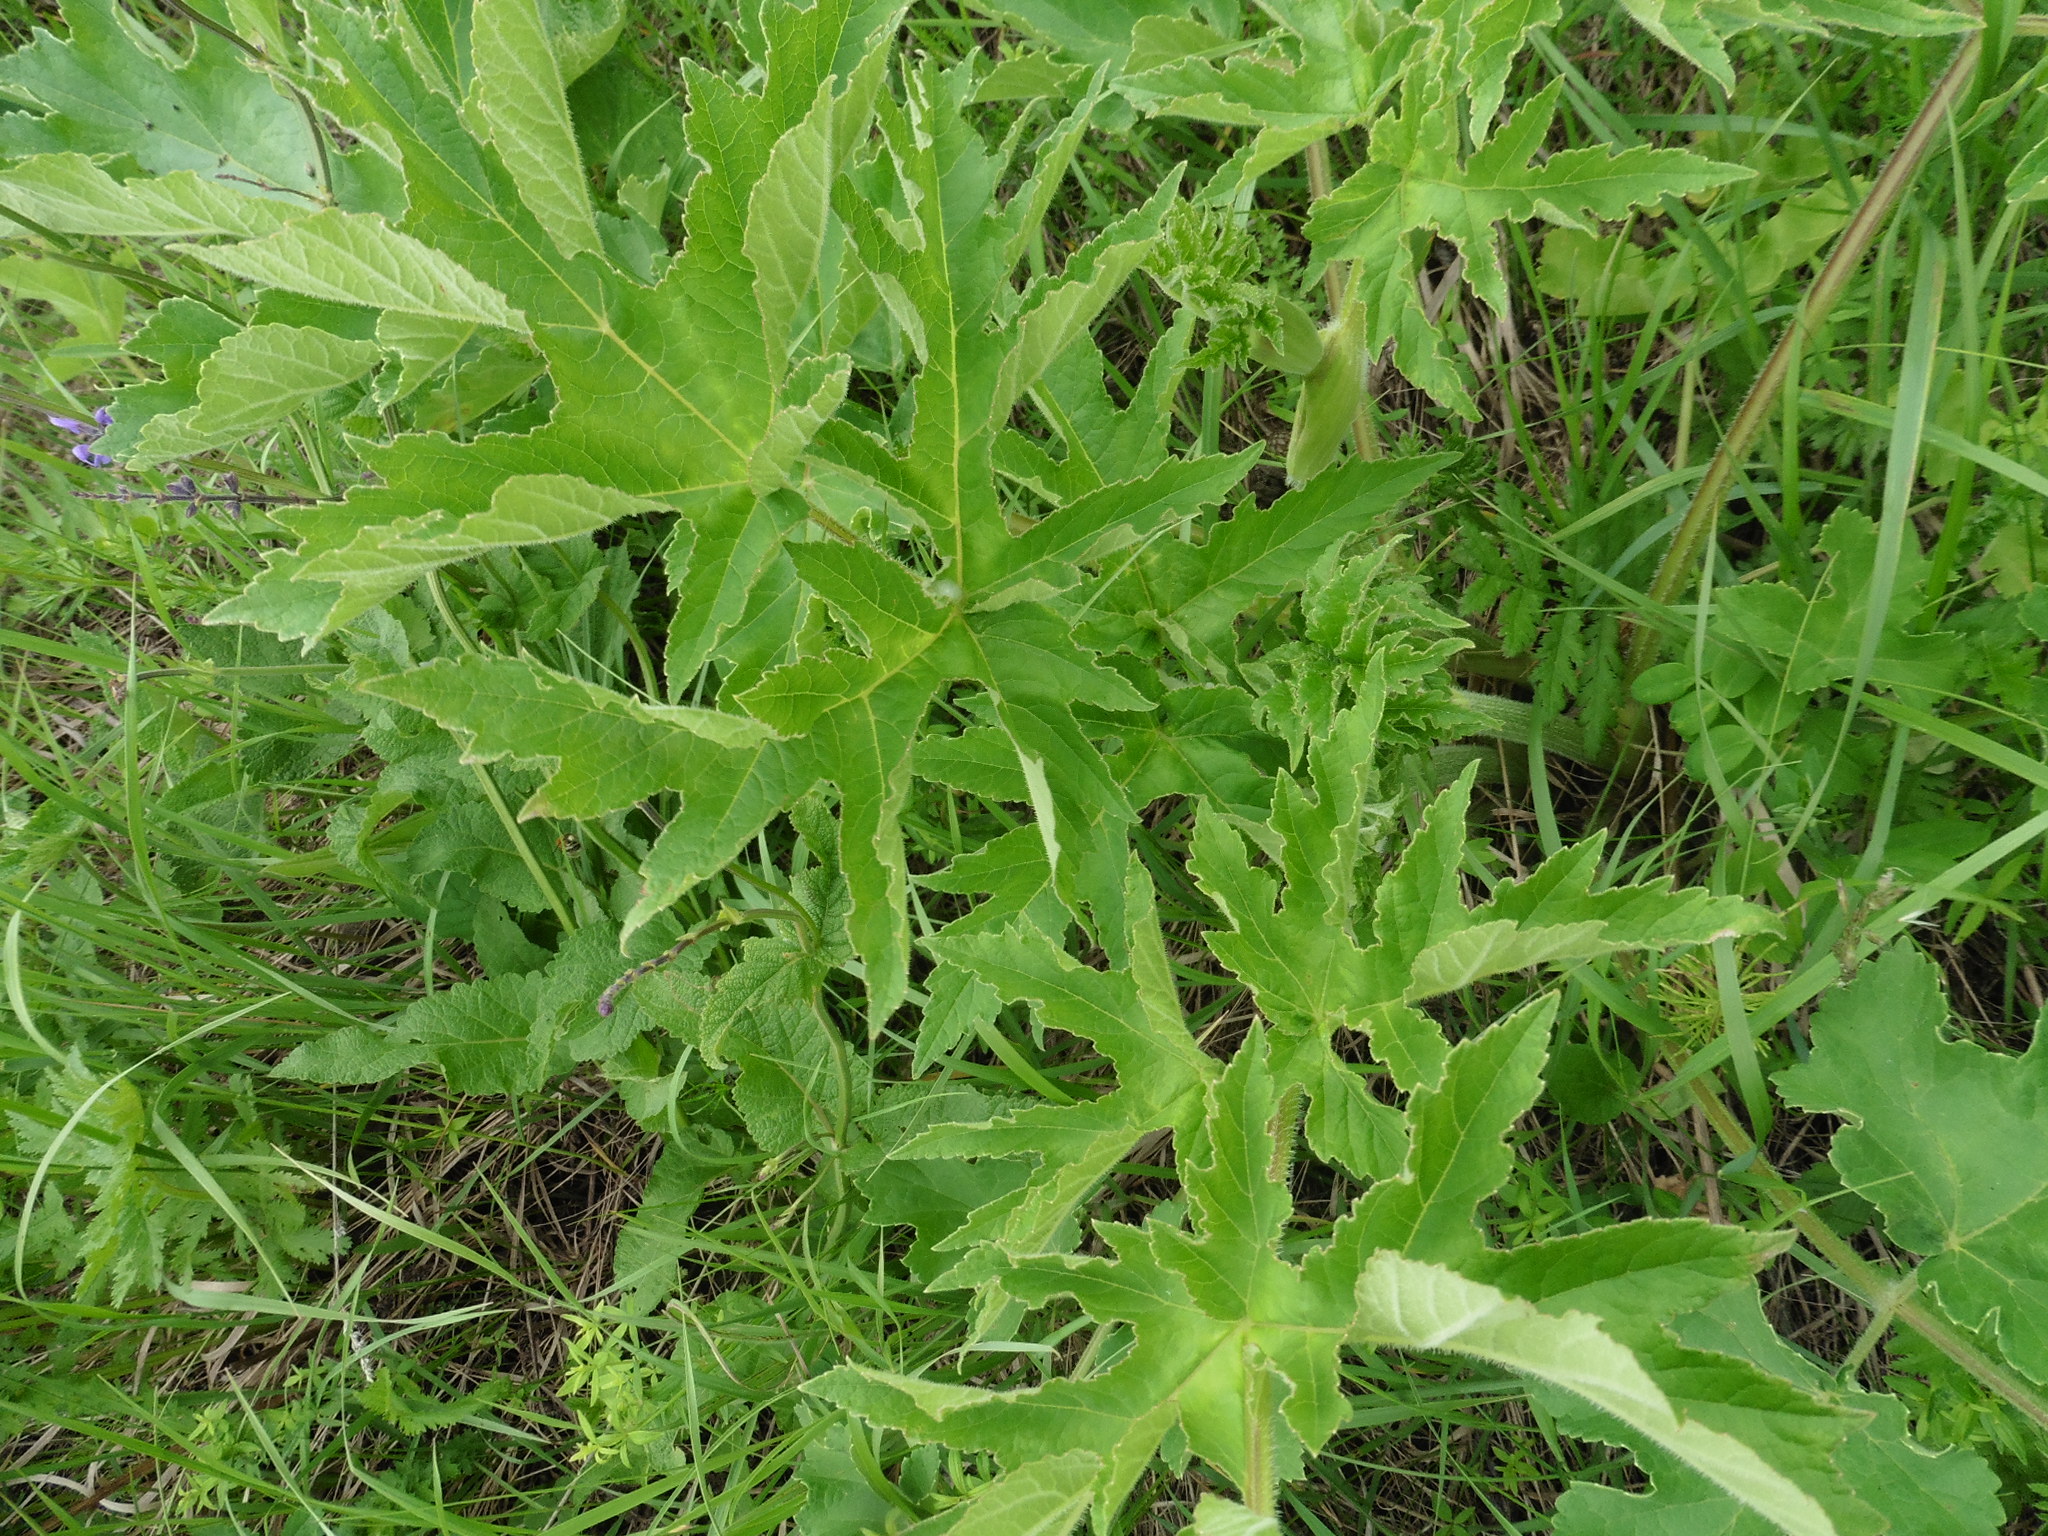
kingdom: Plantae
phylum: Tracheophyta
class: Magnoliopsida
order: Apiales
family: Apiaceae
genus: Heracleum
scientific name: Heracleum sphondylium
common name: Hogweed
